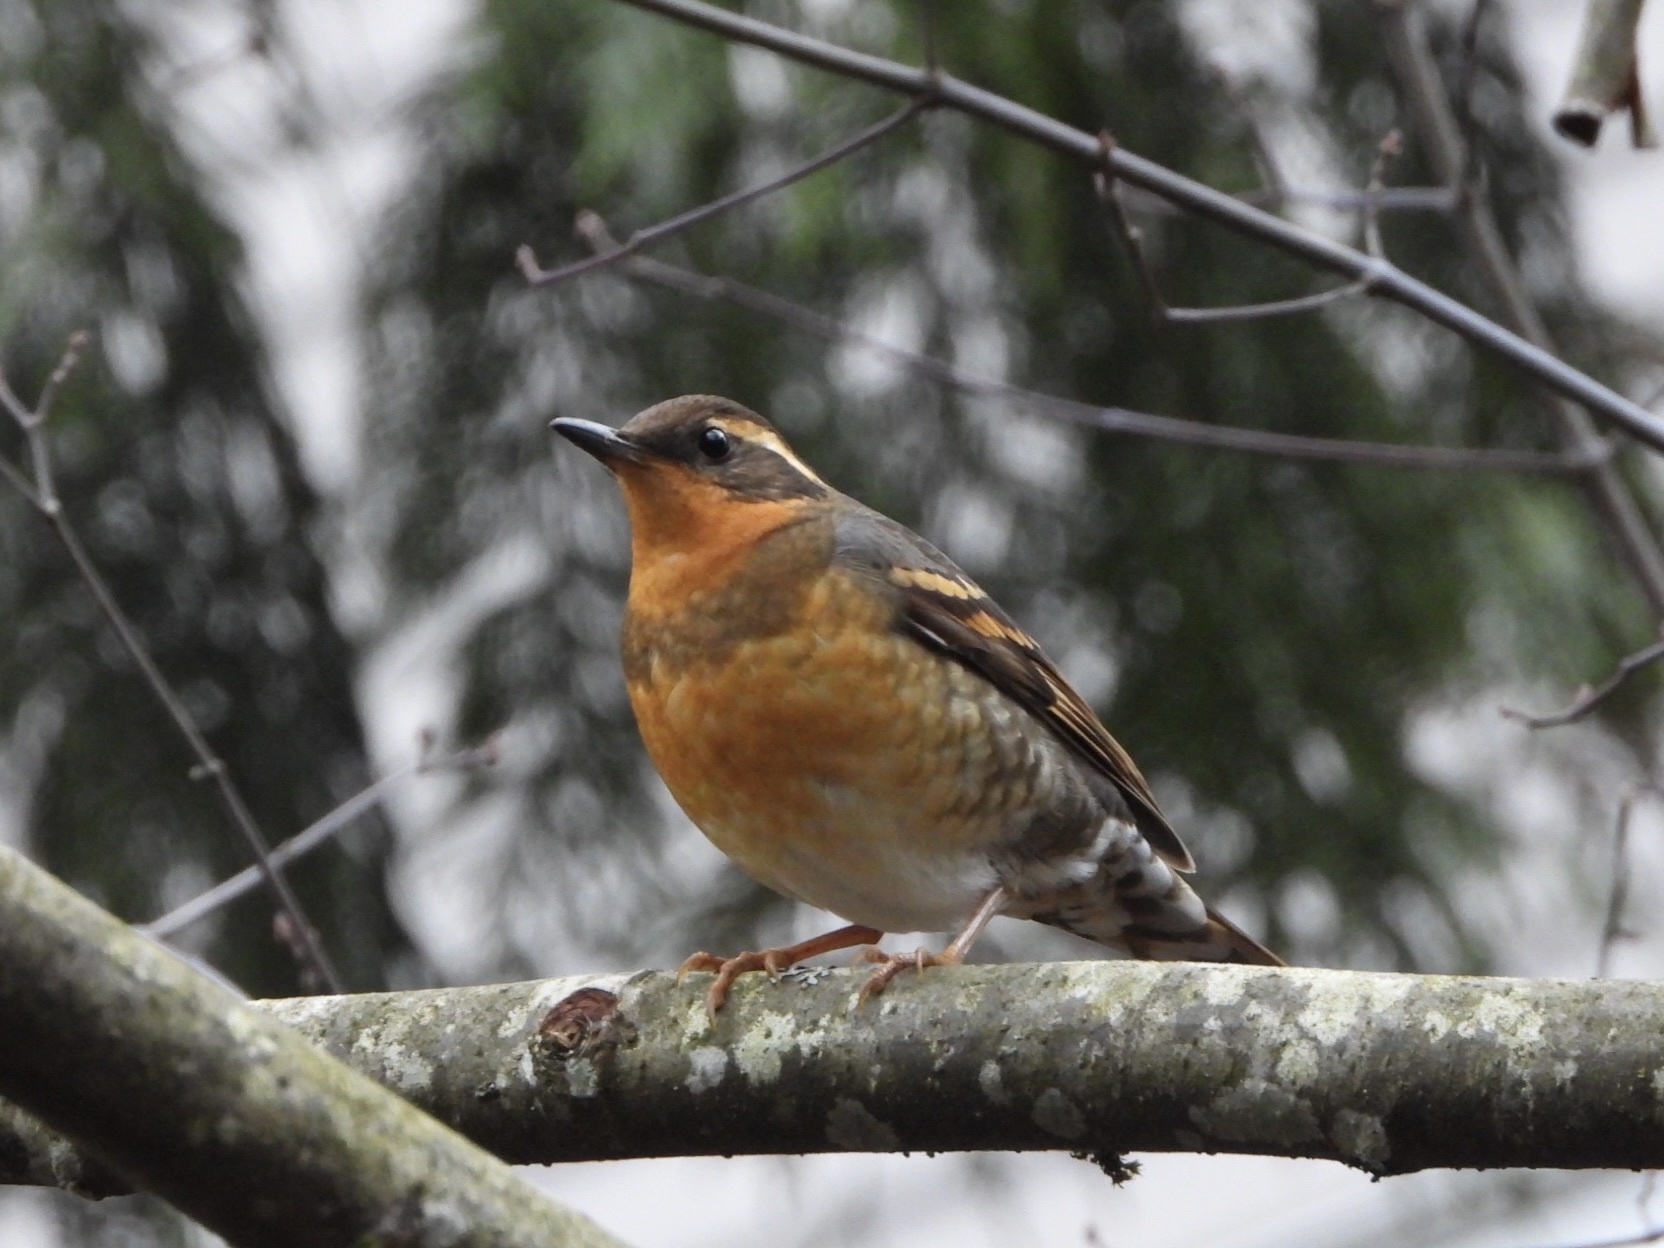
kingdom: Animalia
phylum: Chordata
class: Aves
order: Passeriformes
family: Turdidae
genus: Ixoreus
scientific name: Ixoreus naevius
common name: Varied thrush
